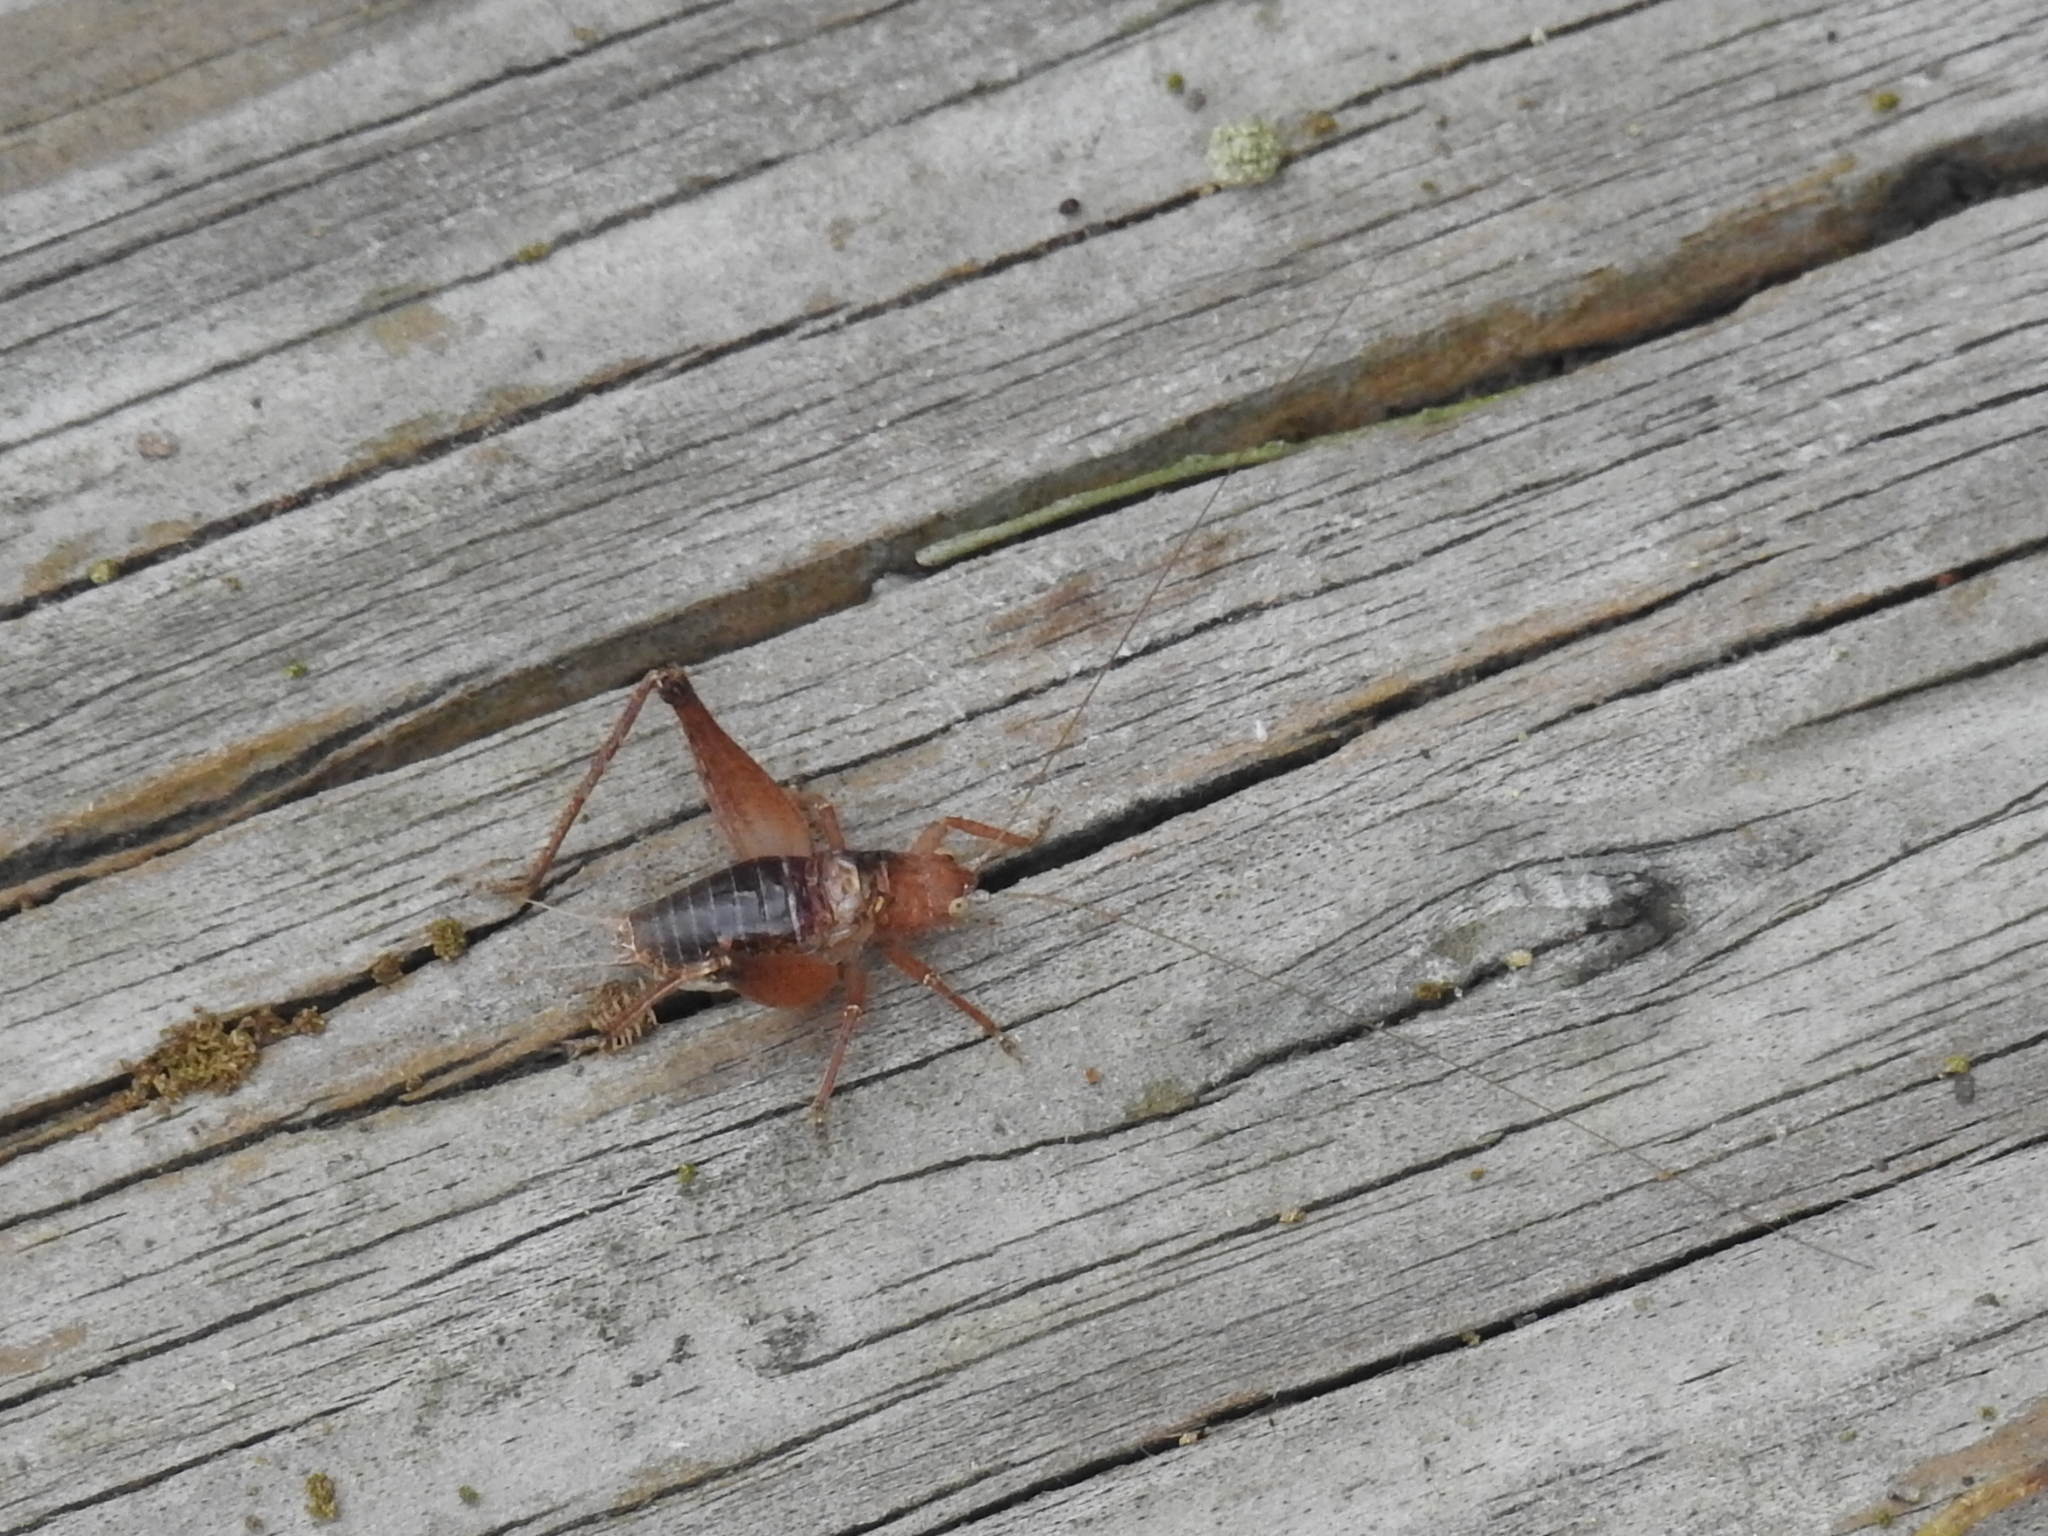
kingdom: Animalia
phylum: Arthropoda
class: Insecta
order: Orthoptera
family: Gryllidae
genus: Hapithus
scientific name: Hapithus agitator
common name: Restless bush cricket
